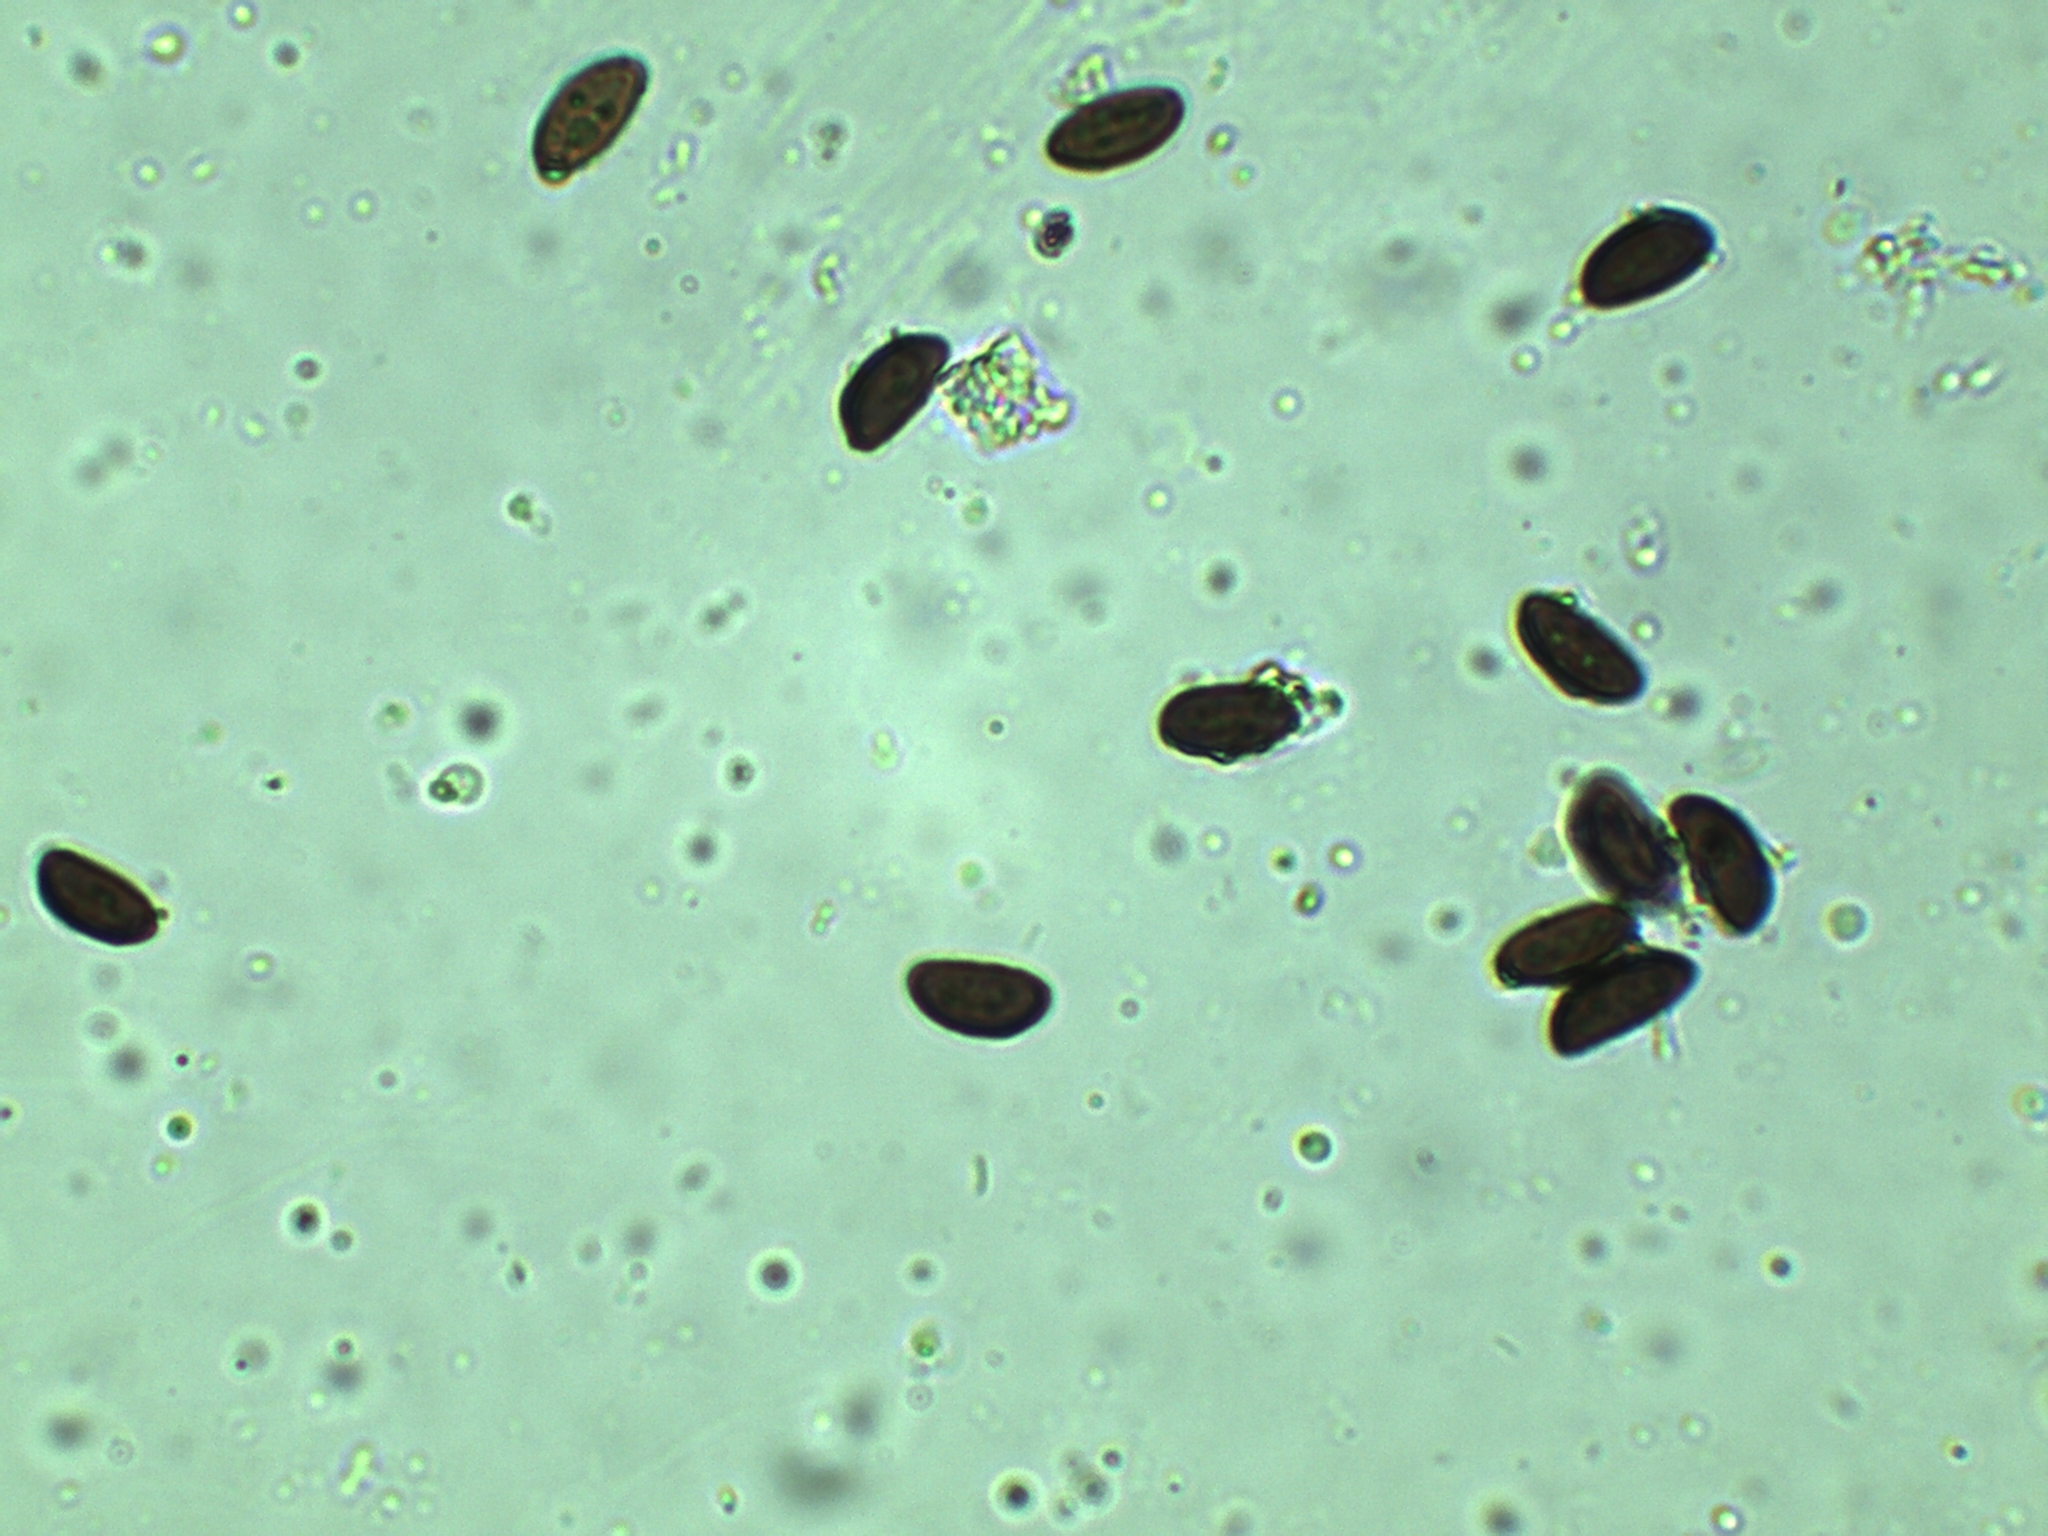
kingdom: Fungi
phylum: Ascomycota
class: Sordariomycetes
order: Xylariales
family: Hypoxylaceae
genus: Annulohypoxylon
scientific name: Annulohypoxylon annulatum
